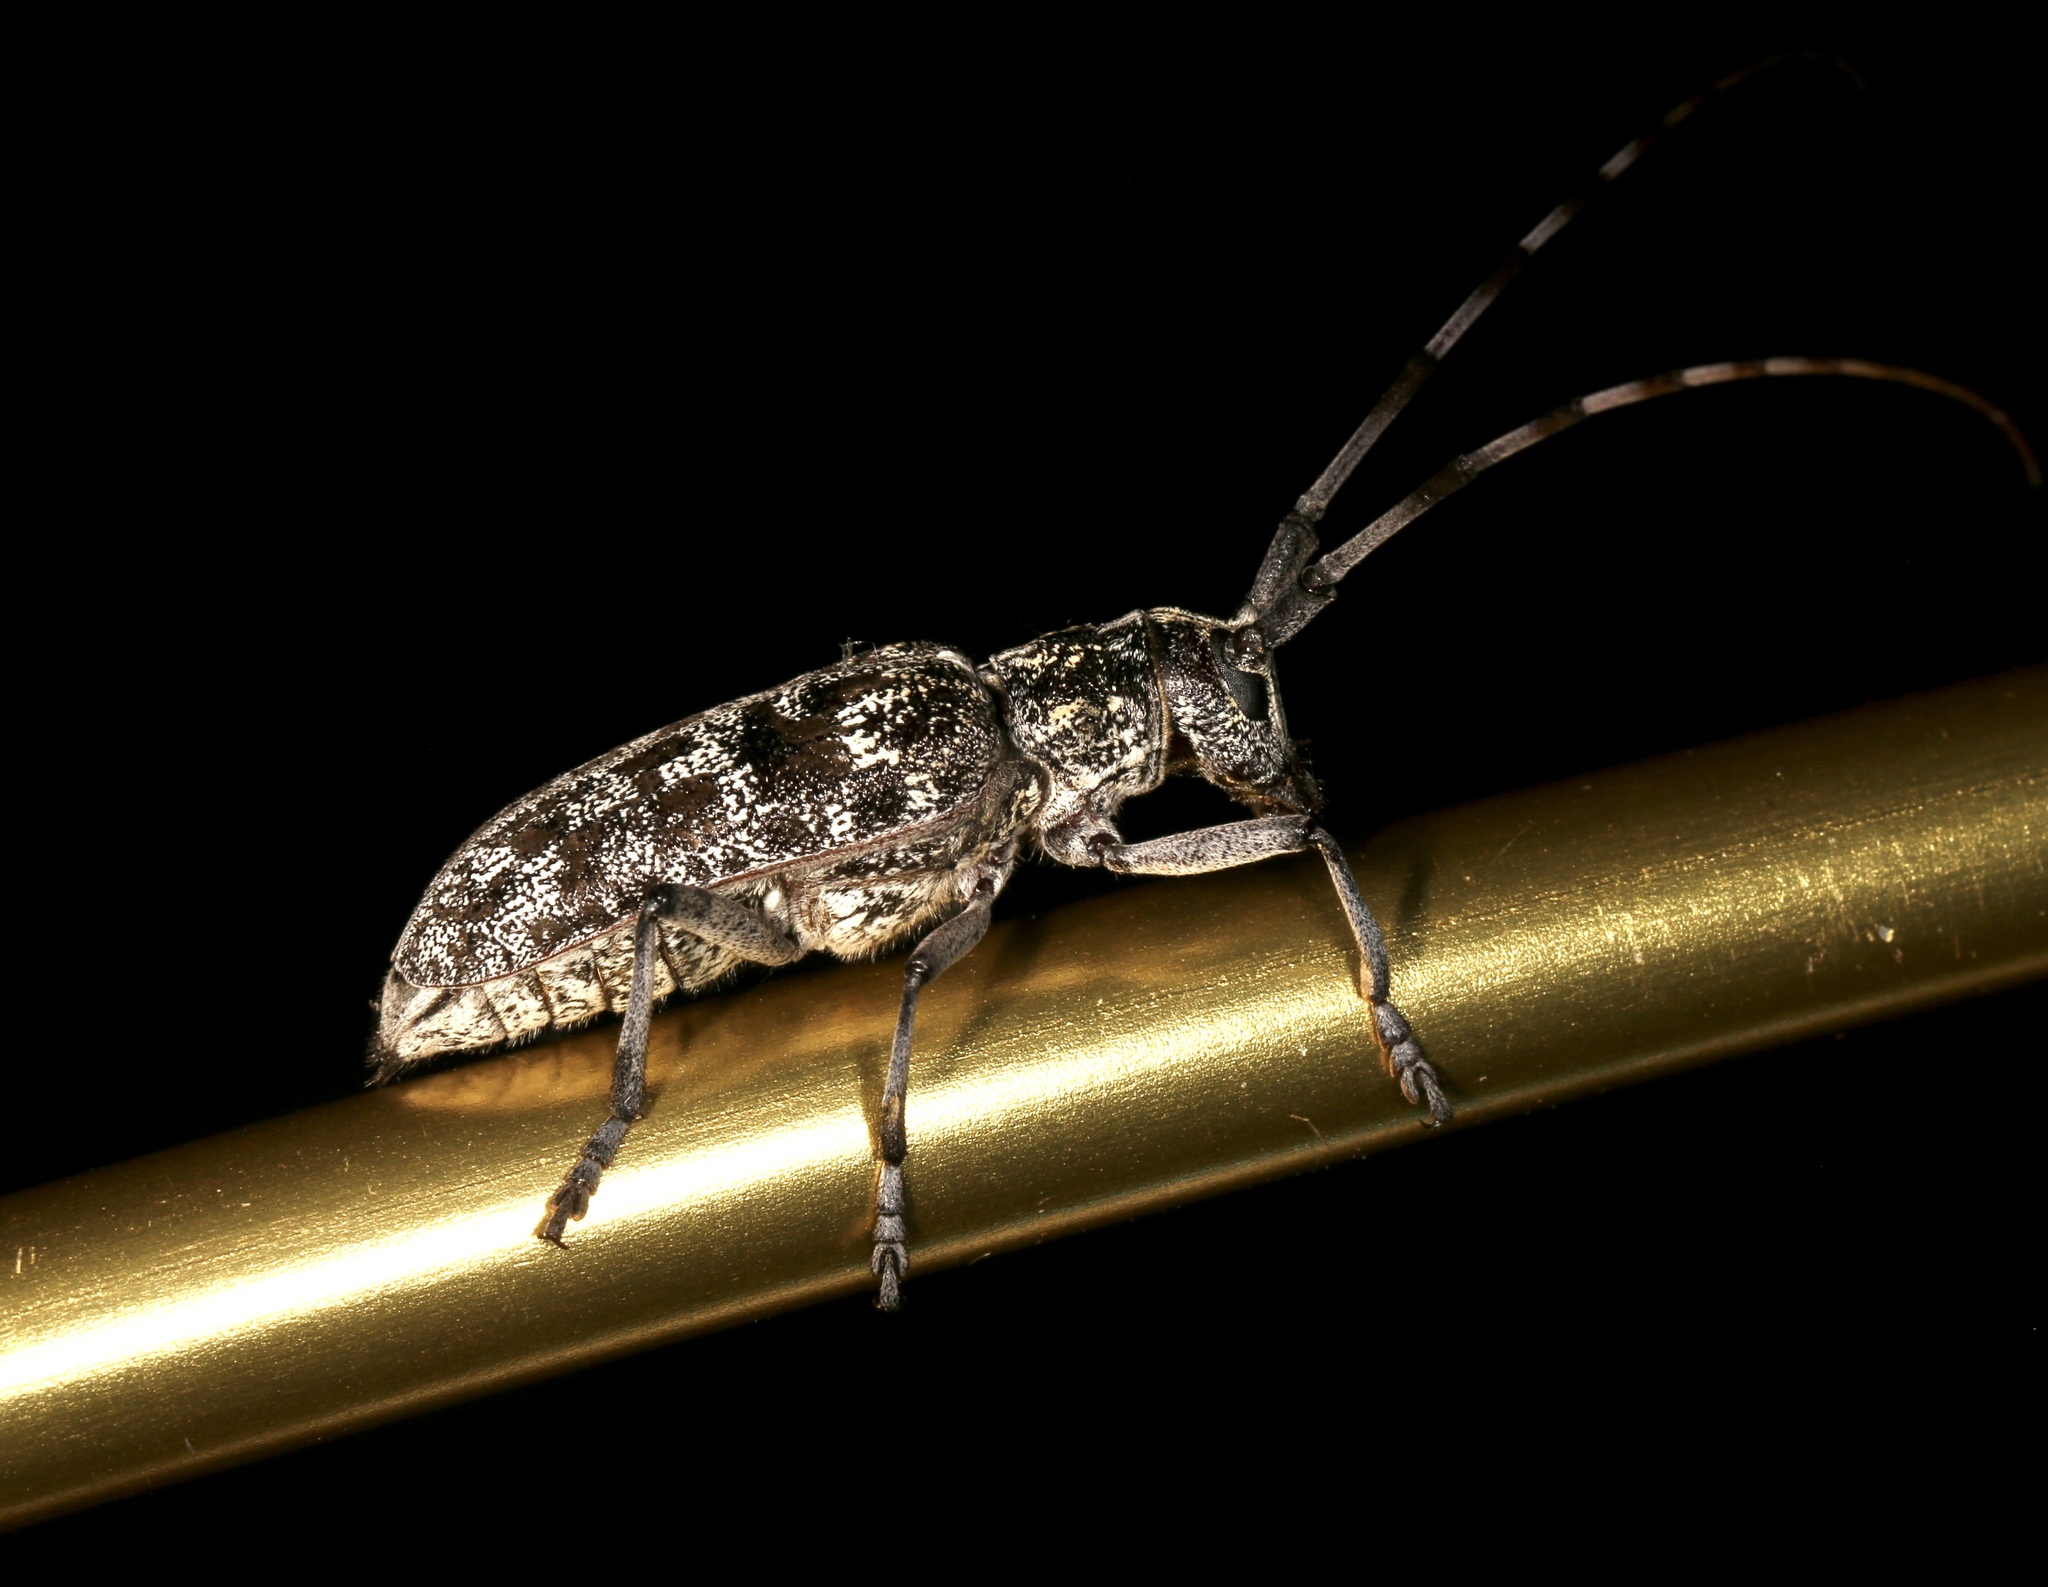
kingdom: Animalia
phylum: Arthropoda
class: Insecta
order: Coleoptera
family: Cerambycidae
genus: Monochamus
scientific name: Monochamus clamator
